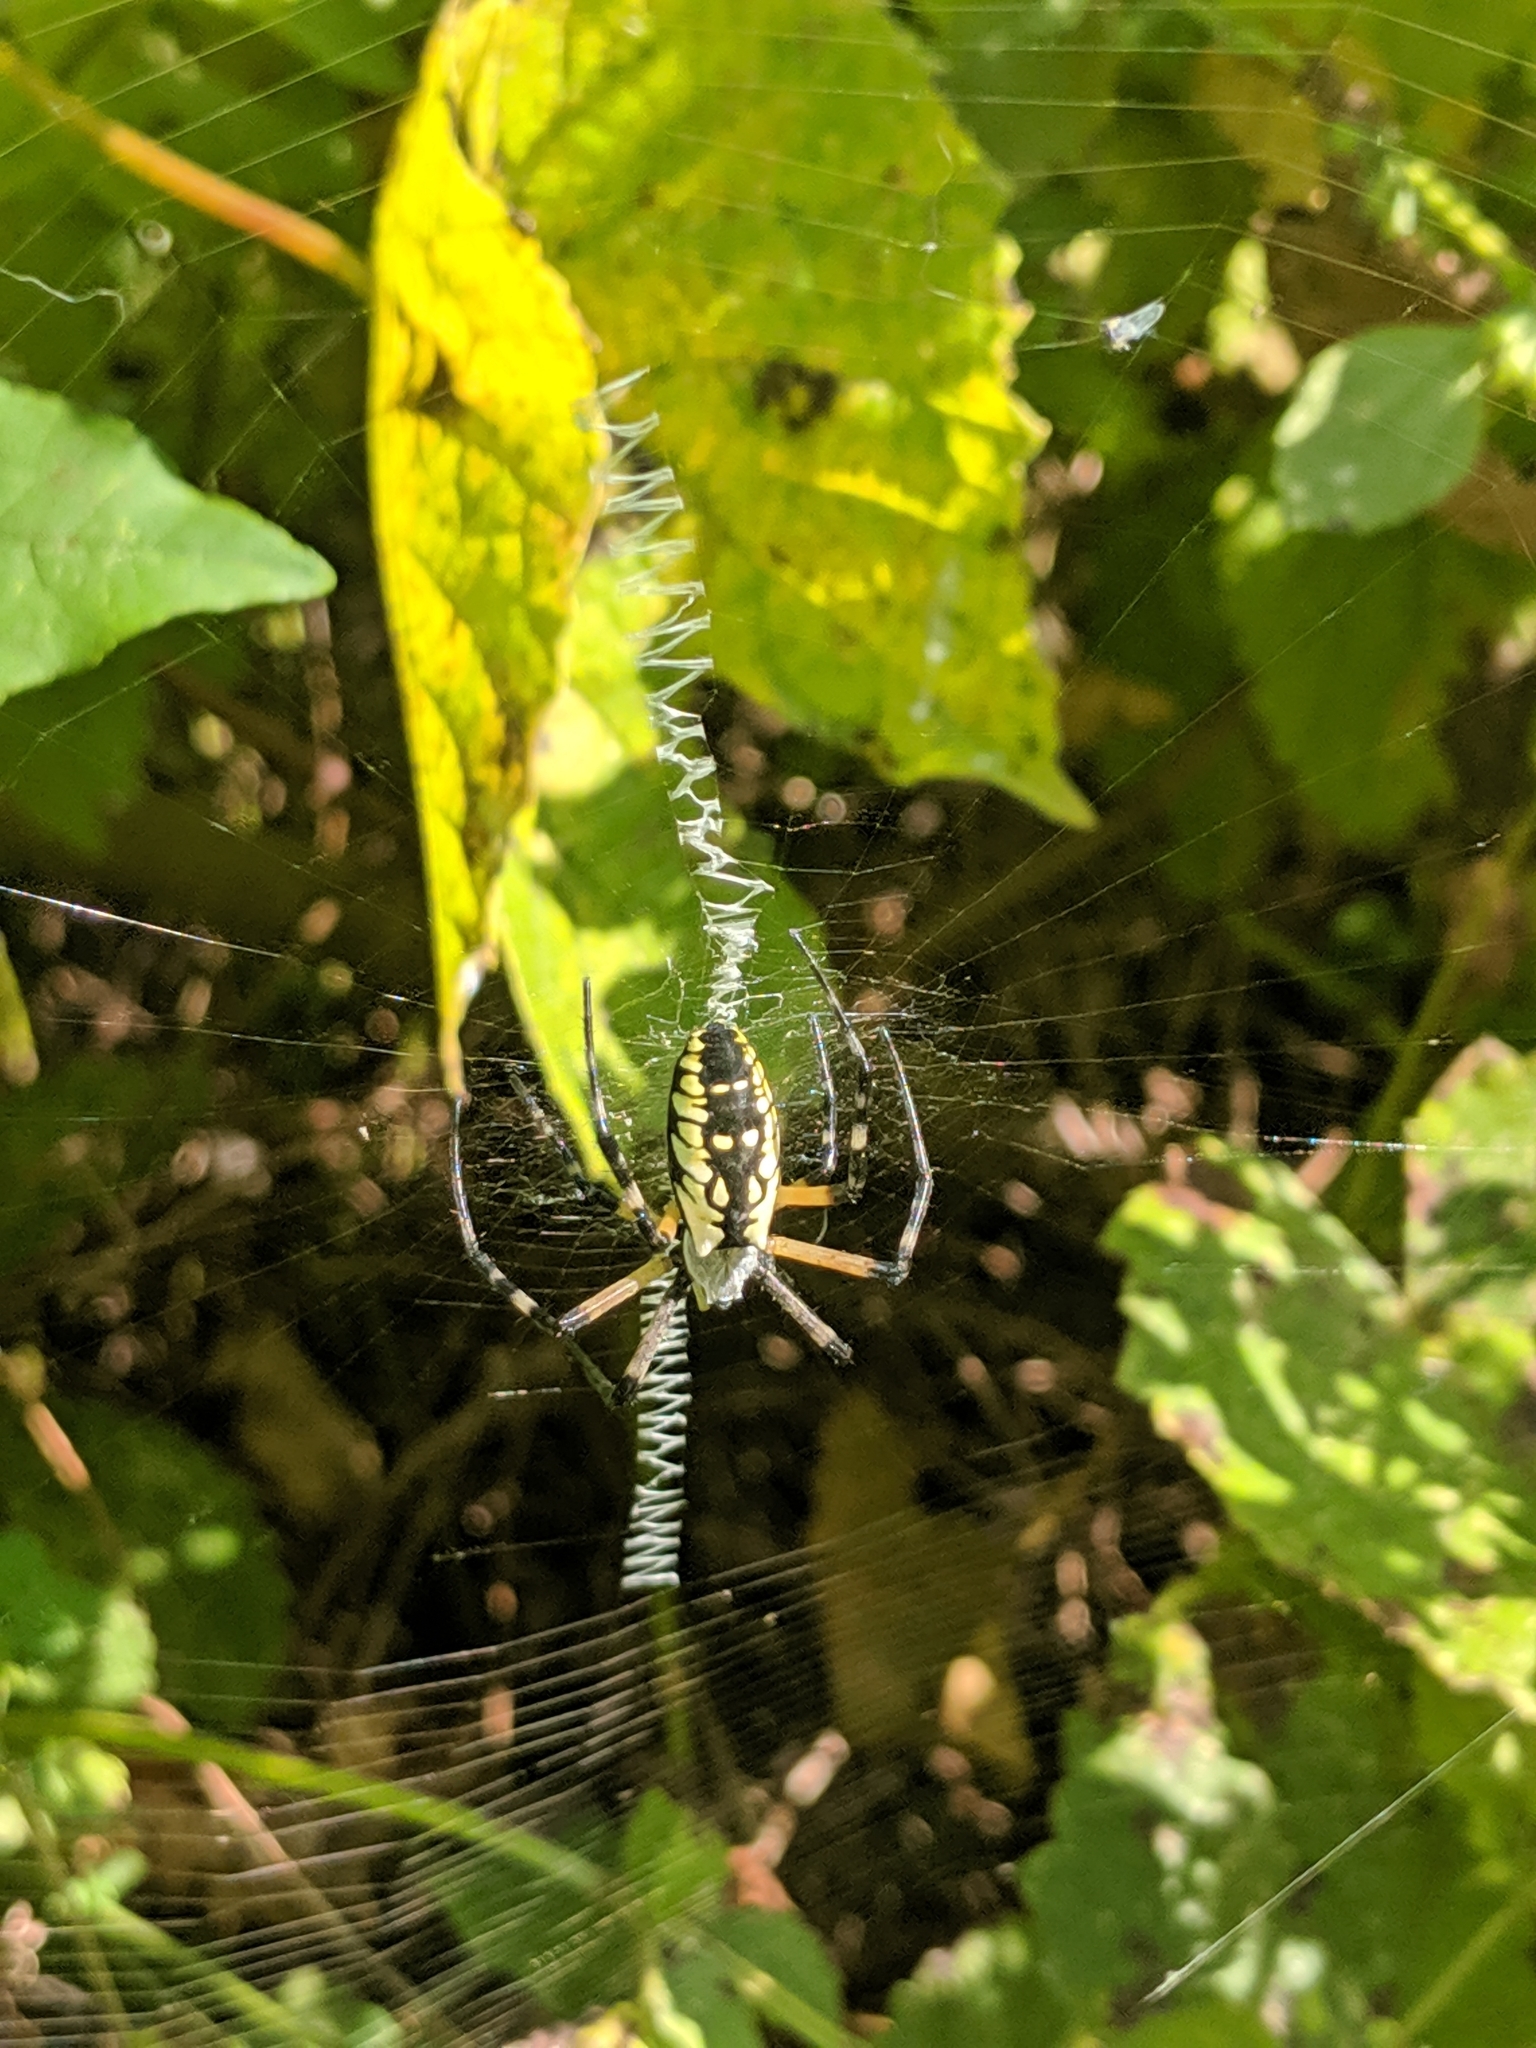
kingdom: Animalia
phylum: Arthropoda
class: Arachnida
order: Araneae
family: Araneidae
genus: Argiope
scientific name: Argiope aurantia
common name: Orb weavers
